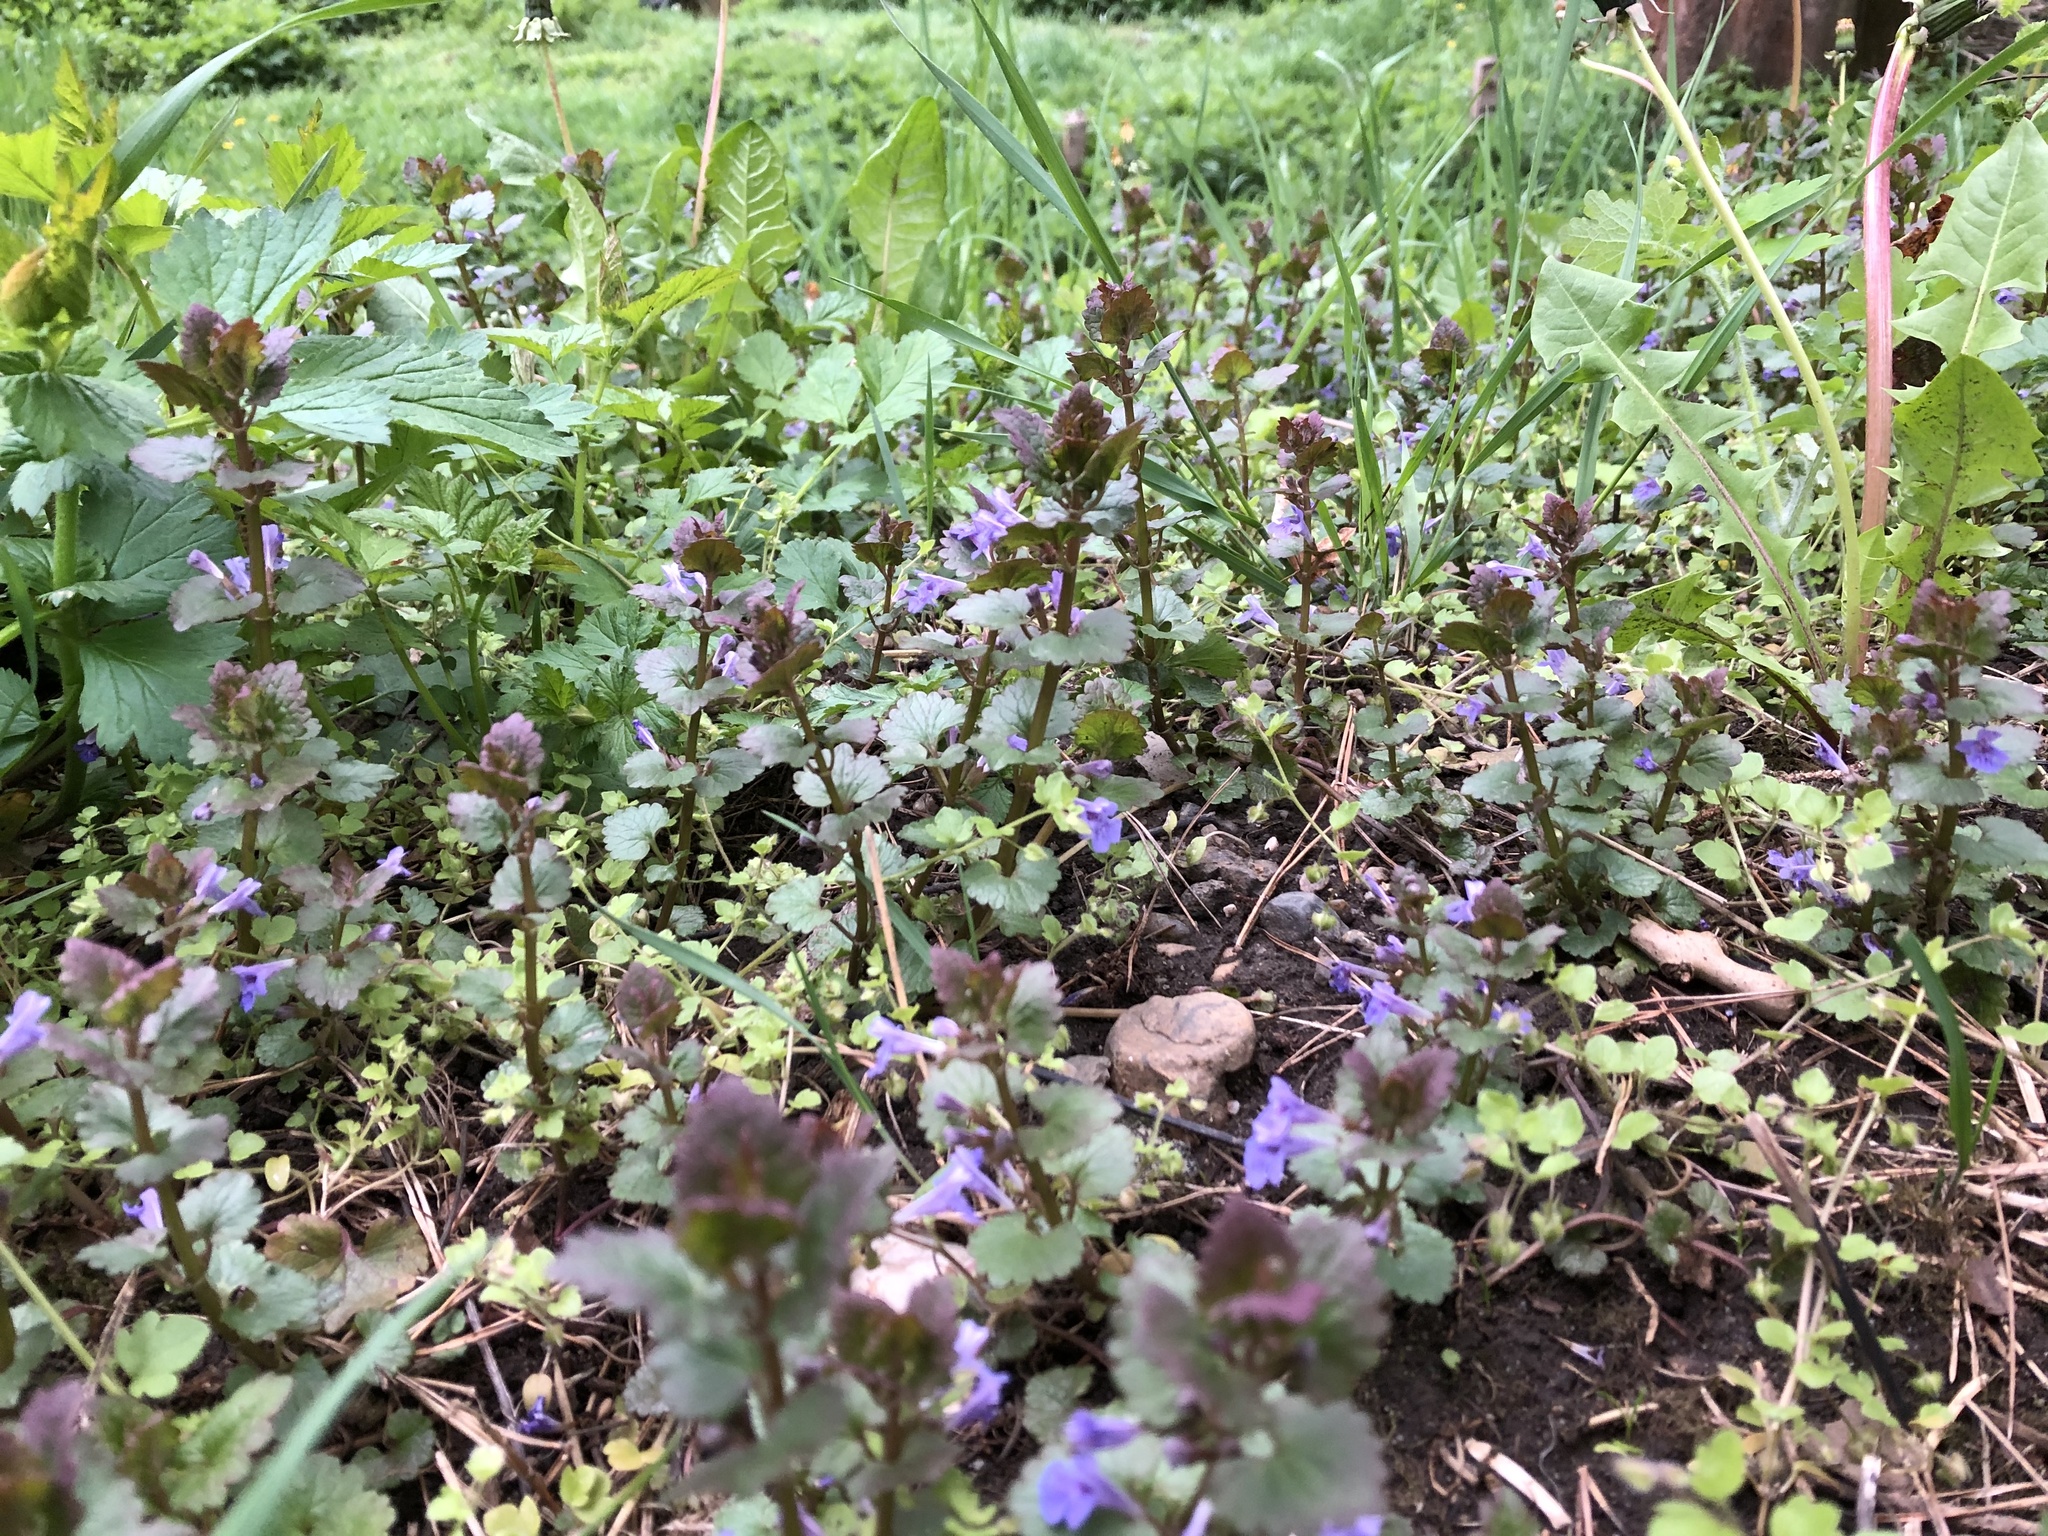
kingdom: Plantae
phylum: Tracheophyta
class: Magnoliopsida
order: Lamiales
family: Lamiaceae
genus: Glechoma
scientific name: Glechoma hederacea
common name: Ground ivy
